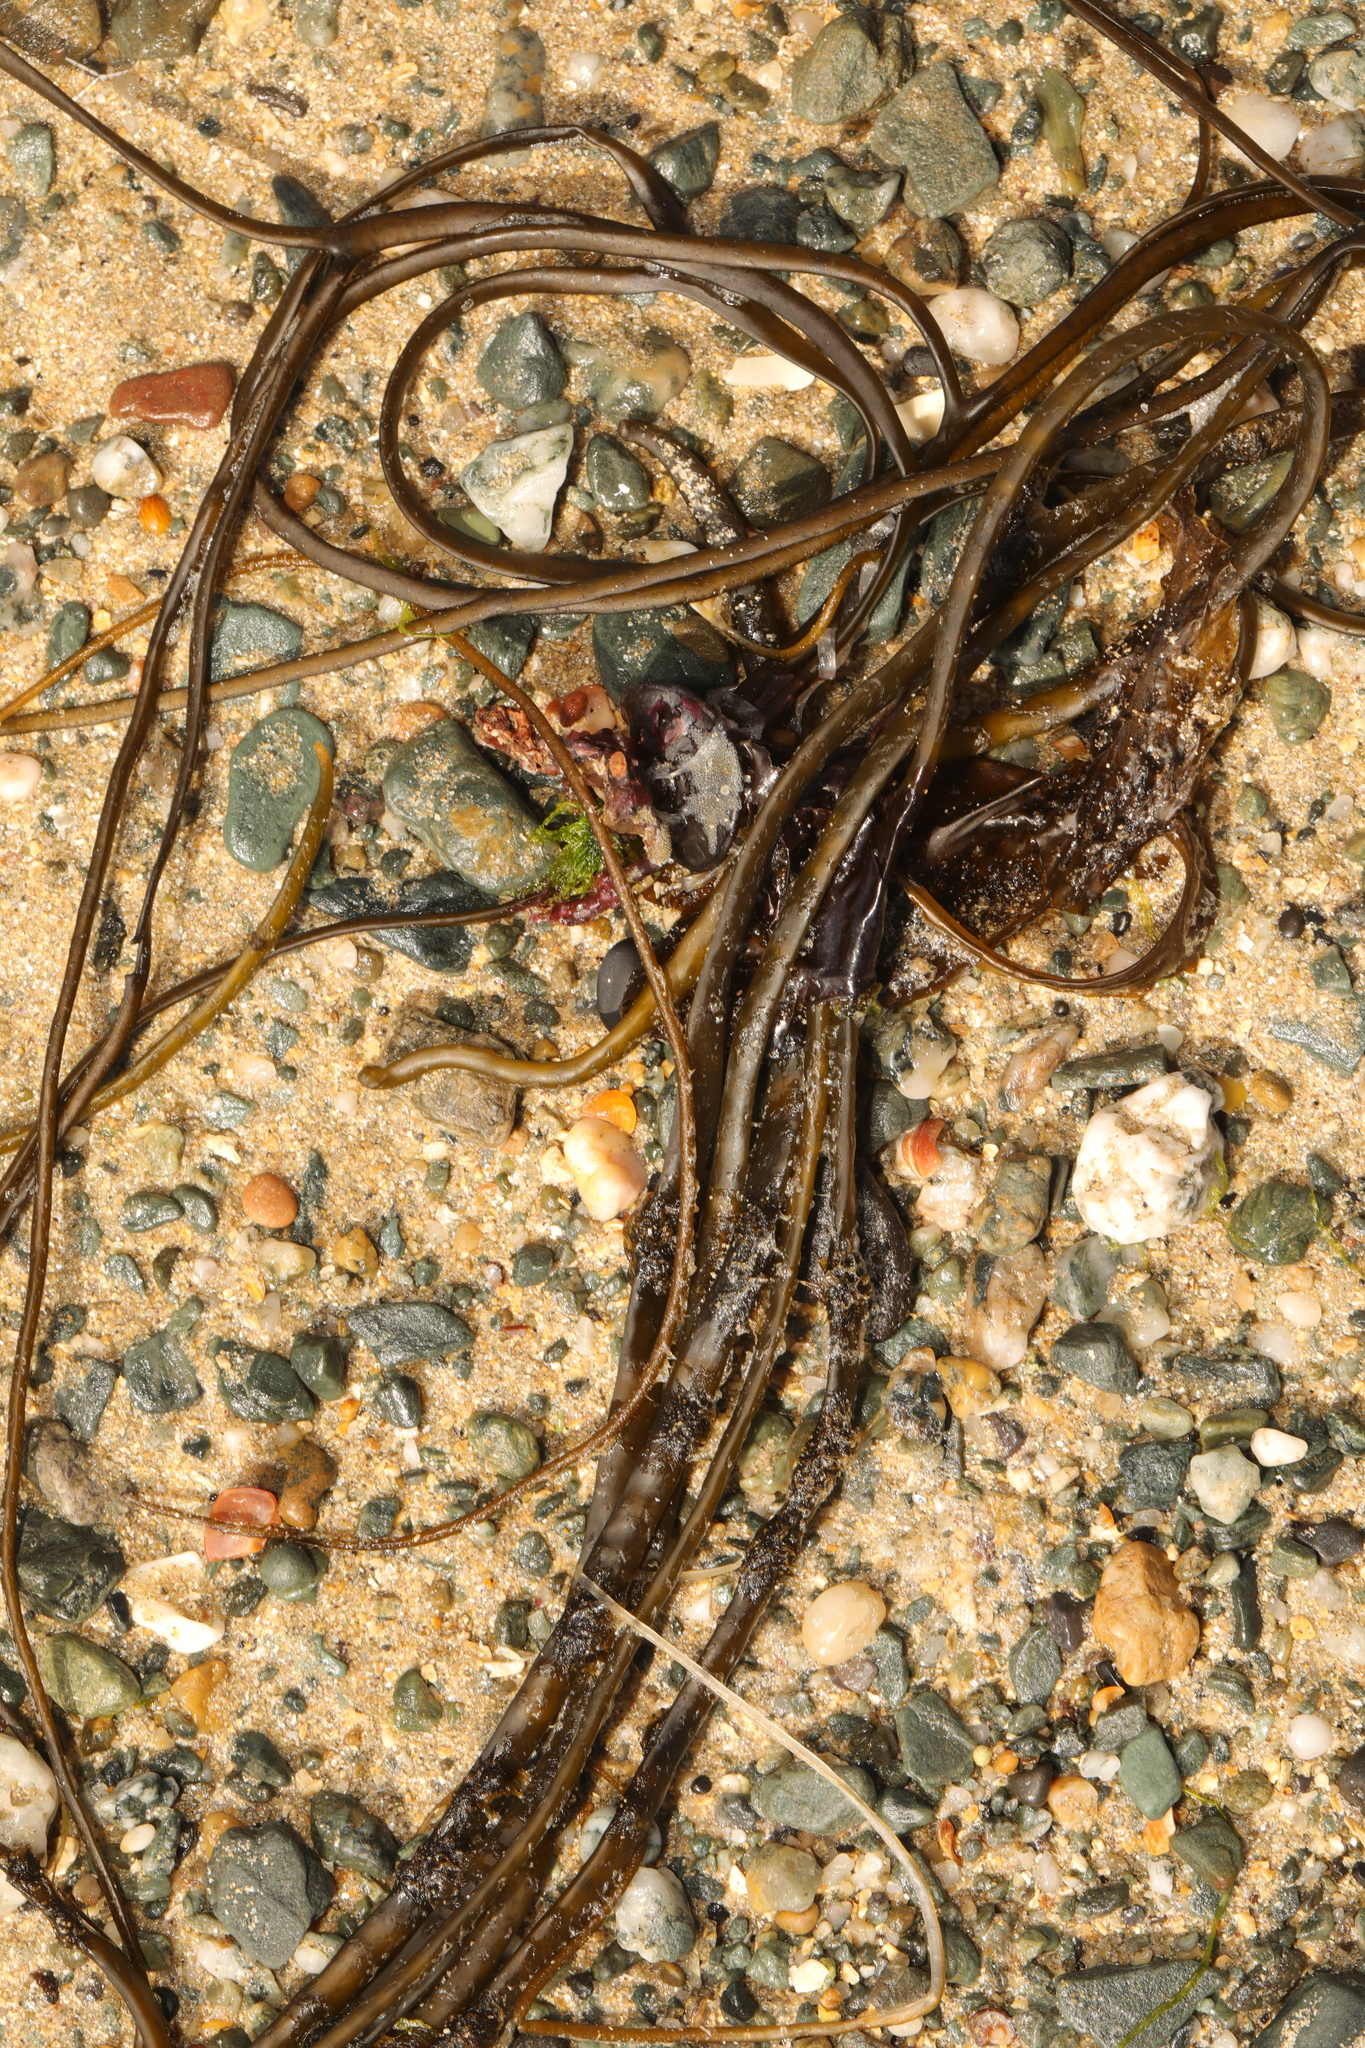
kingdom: Chromista
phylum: Ochrophyta
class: Phaeophyceae
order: Fucales
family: Himanthaliaceae
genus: Himanthalia
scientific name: Himanthalia elongata
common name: Sea-thong
